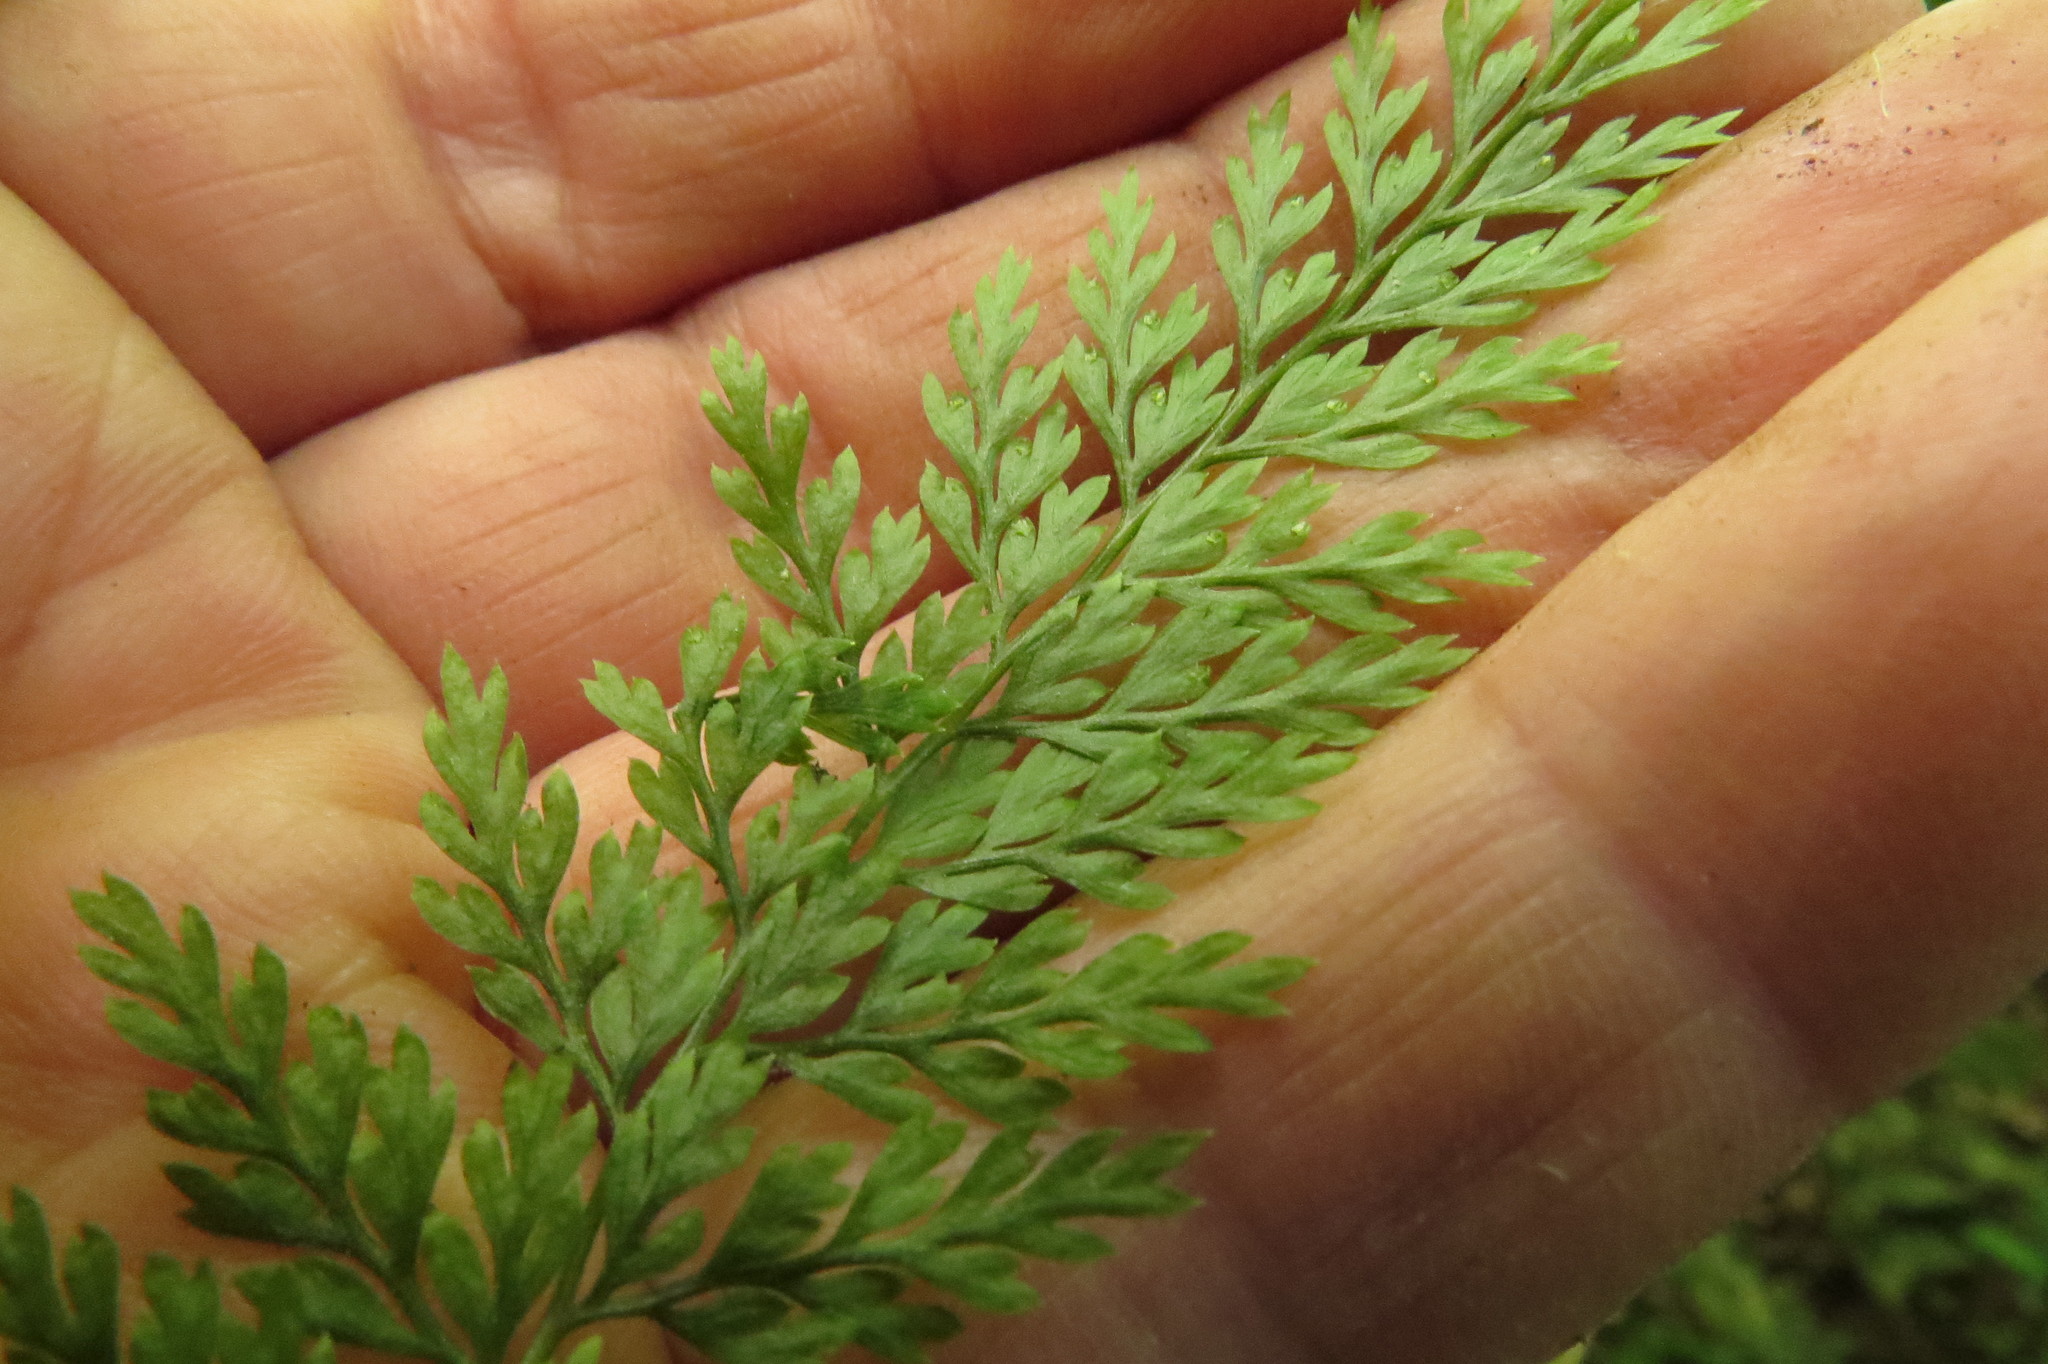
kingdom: Plantae
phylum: Tracheophyta
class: Polypodiopsida
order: Polypodiales
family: Dennstaedtiaceae
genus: Dennstaedtia
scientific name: Dennstaedtia novae-zelandiae
